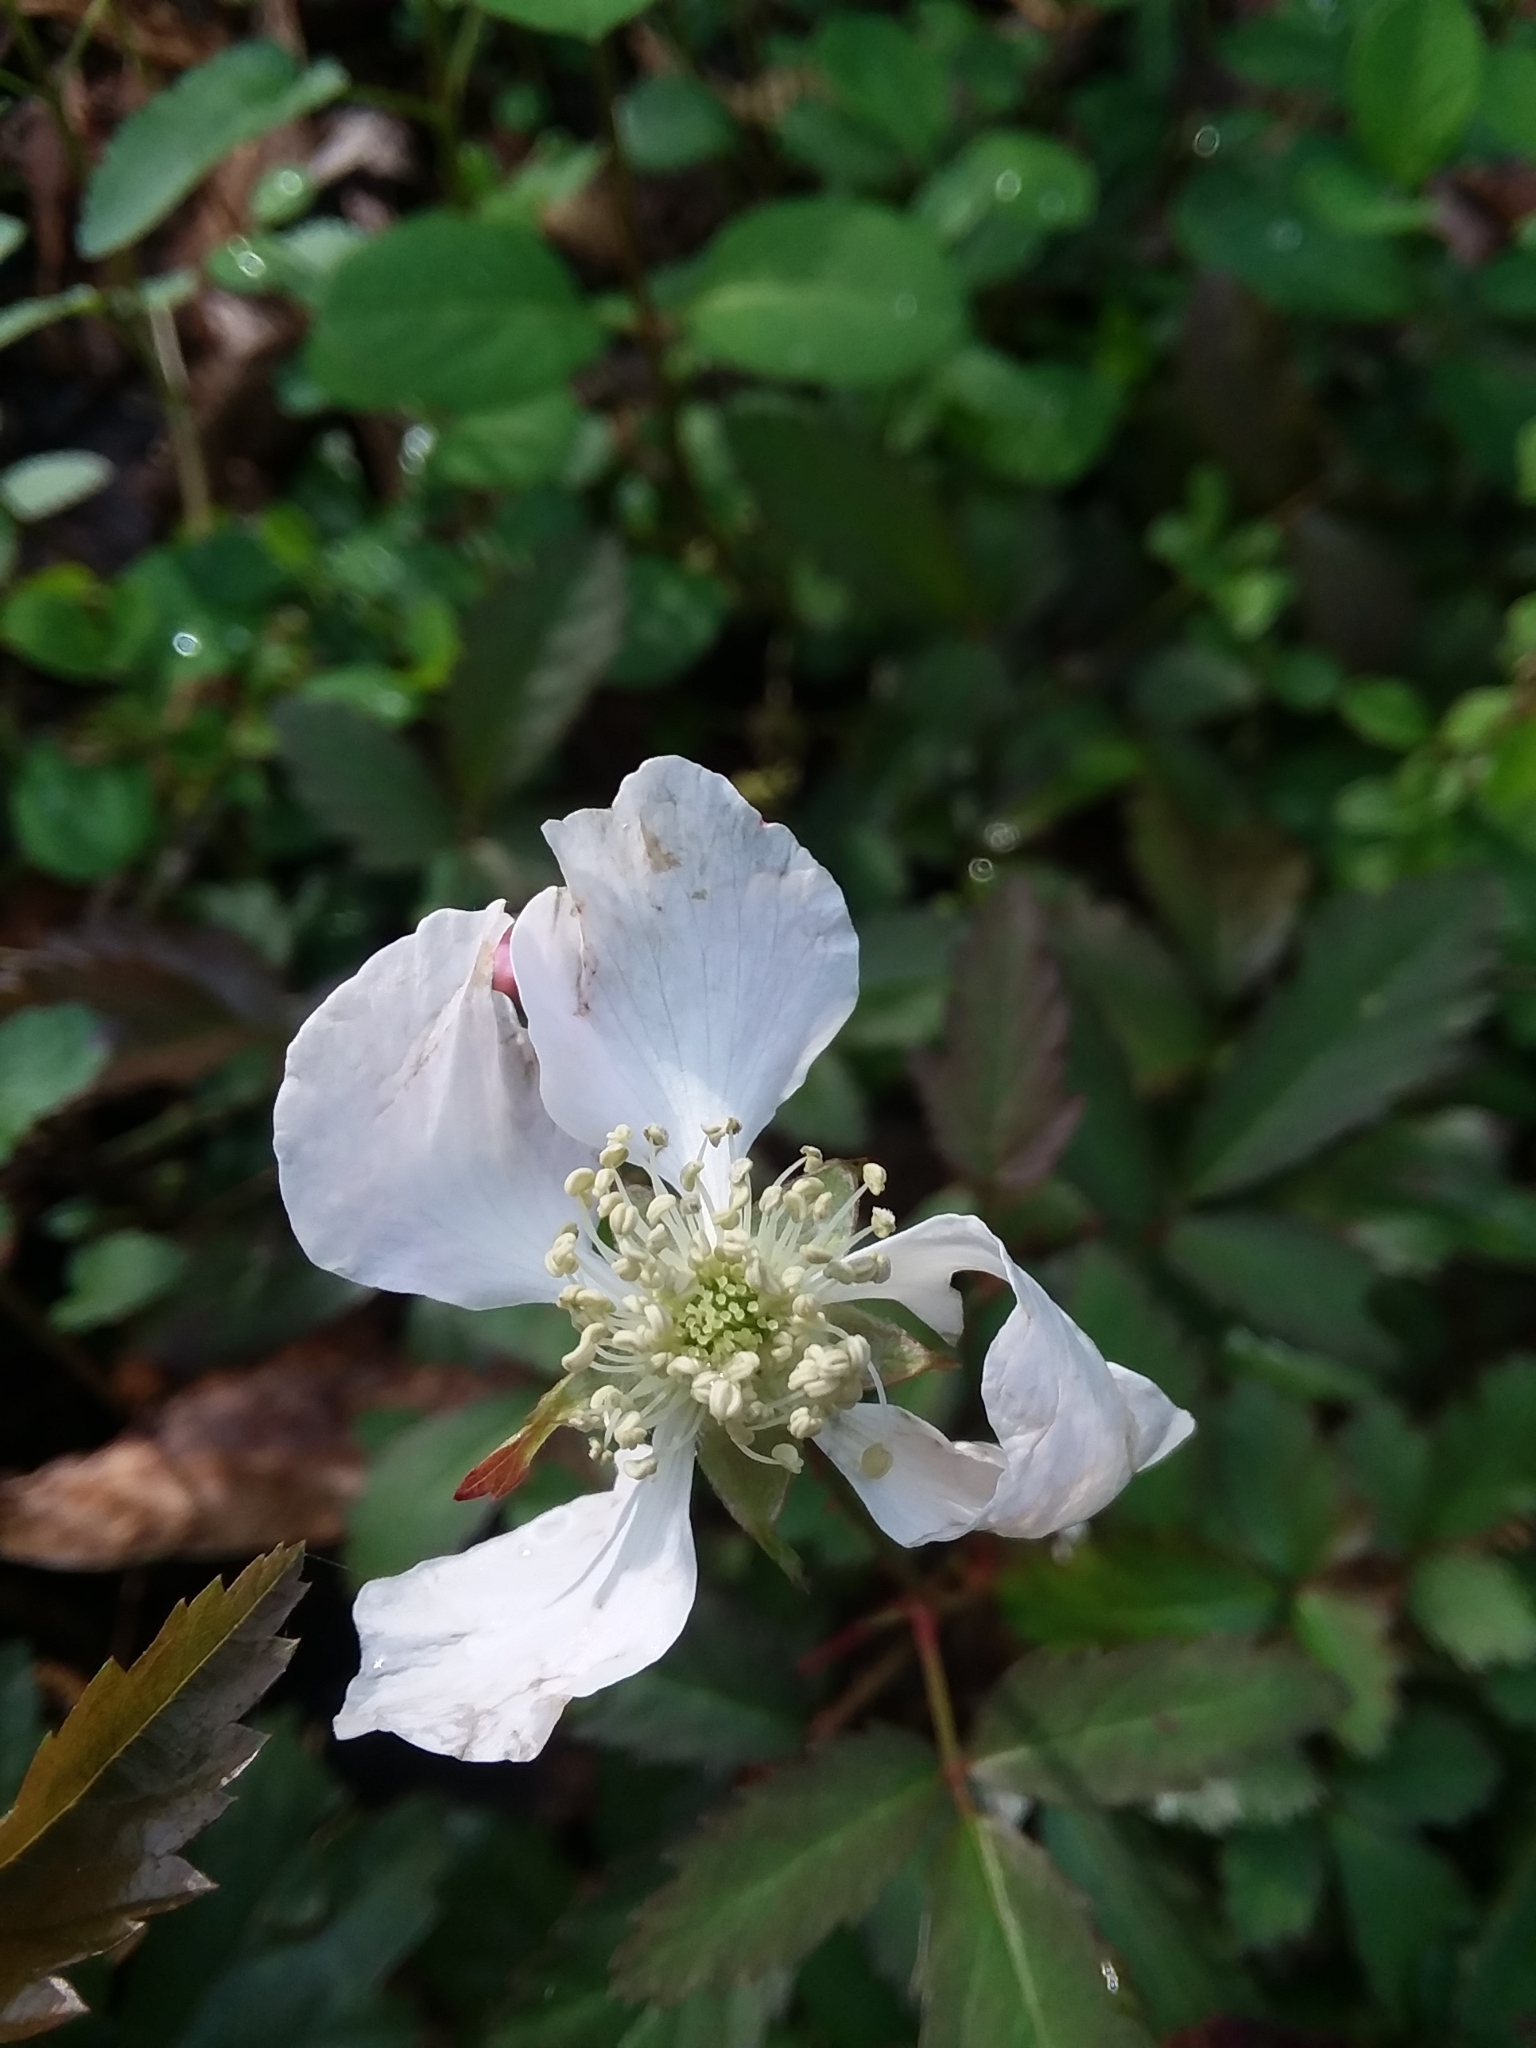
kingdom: Plantae
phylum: Tracheophyta
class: Magnoliopsida
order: Rosales
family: Rosaceae
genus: Rubus
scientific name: Rubus trivialis
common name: Southern dewberry
